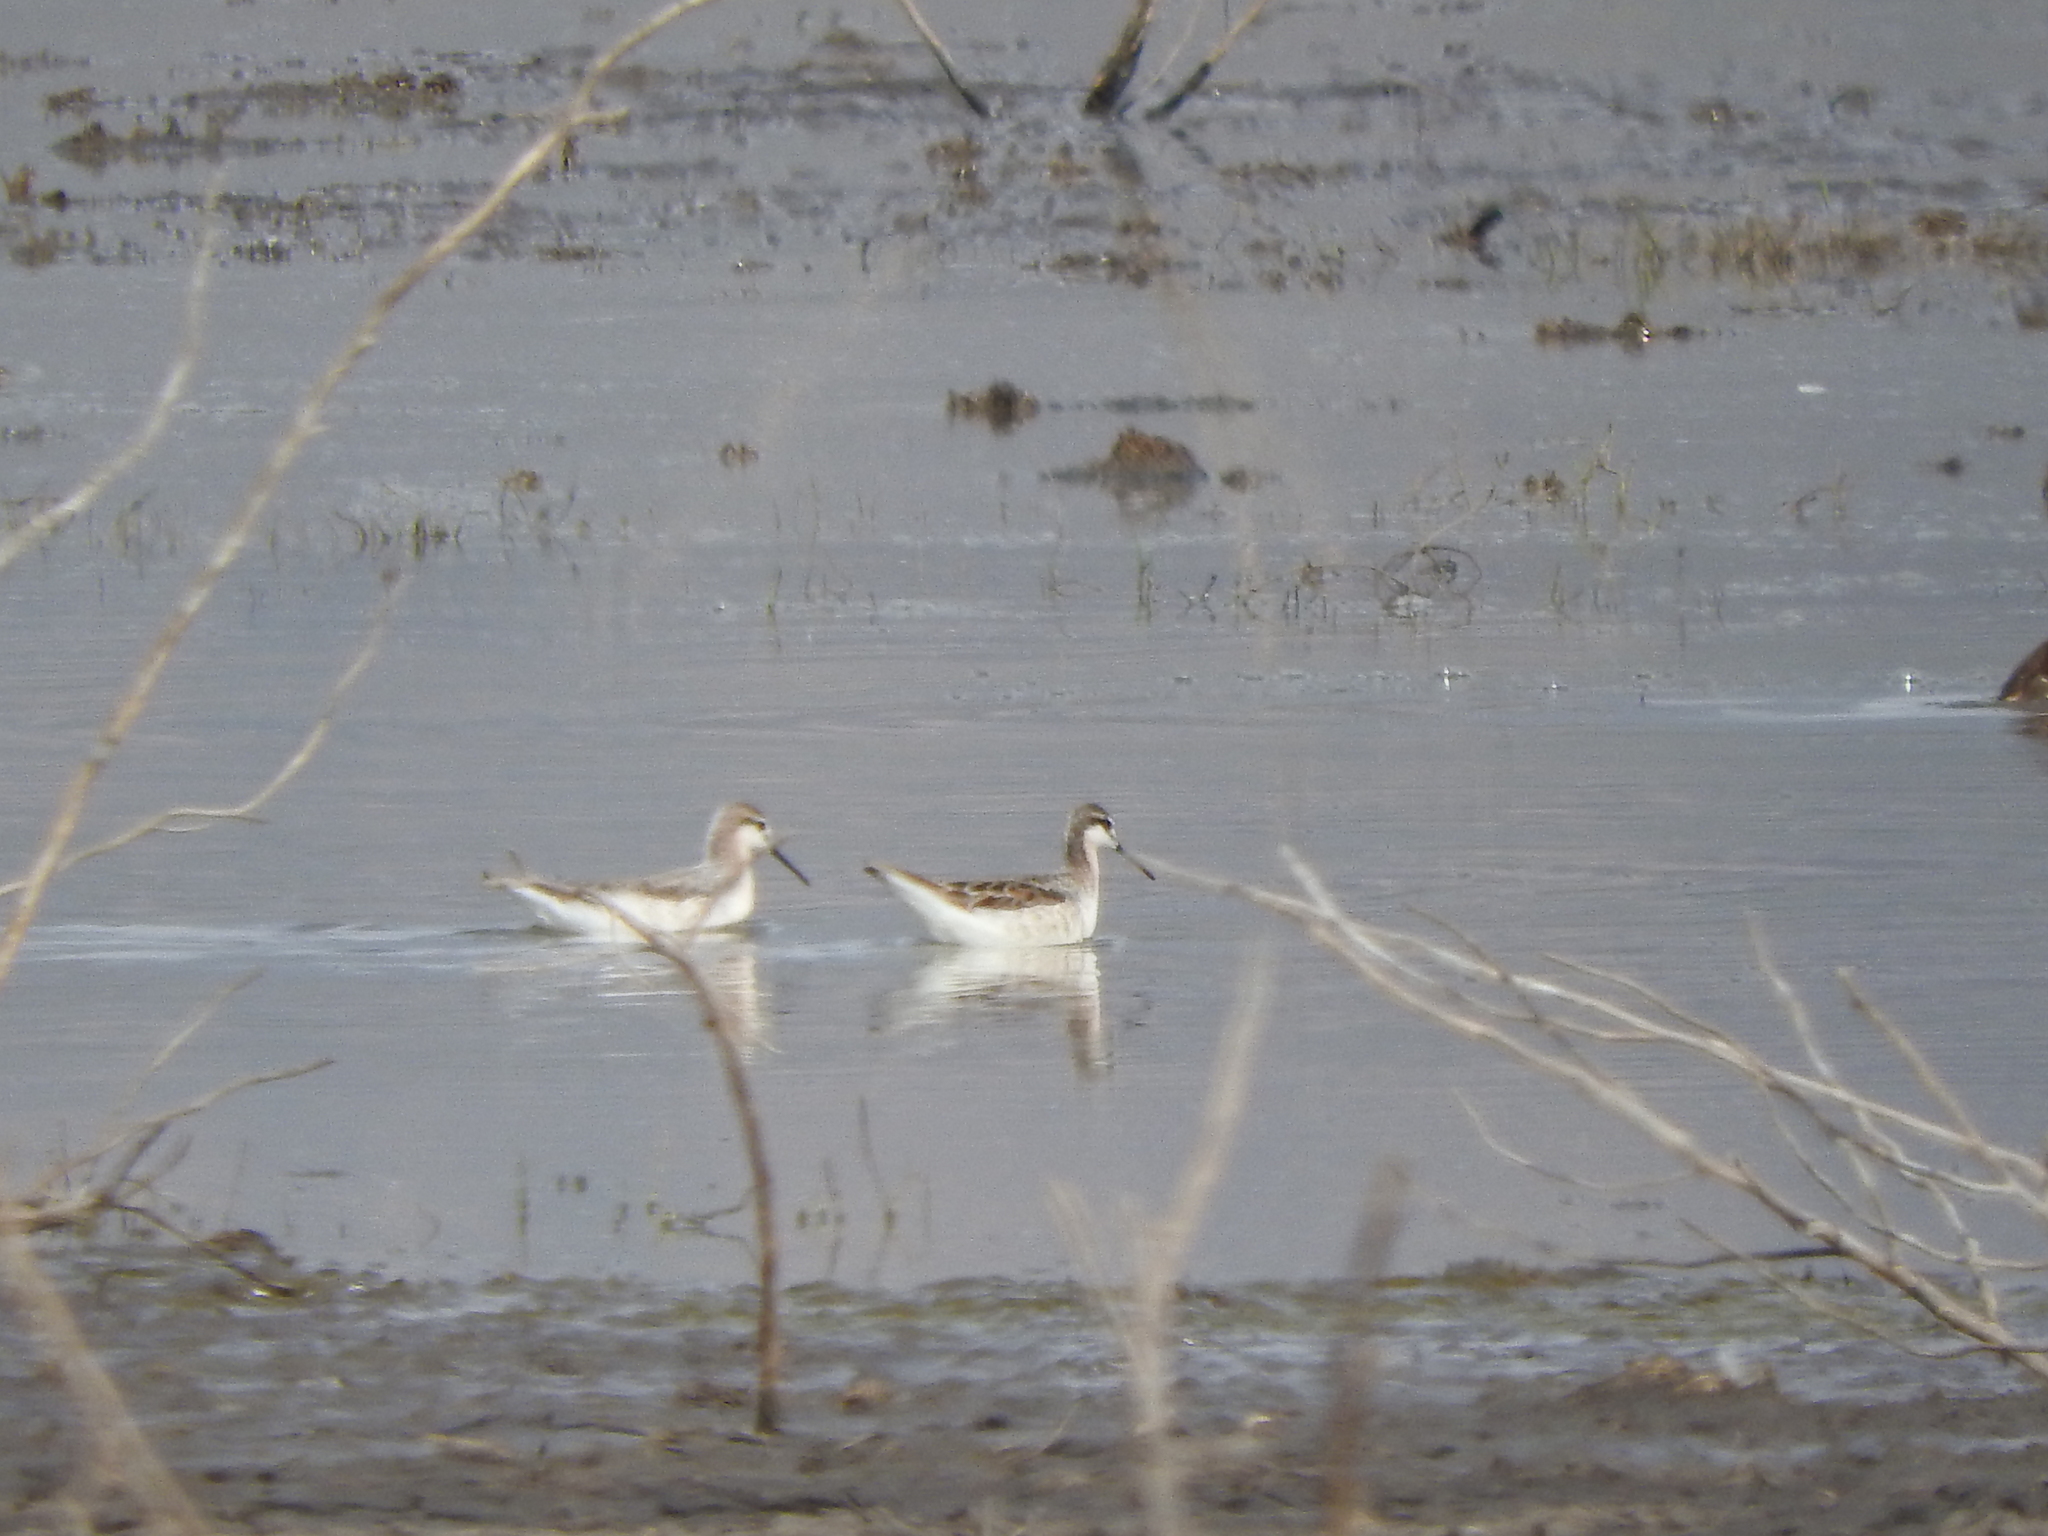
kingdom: Animalia
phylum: Chordata
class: Aves
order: Charadriiformes
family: Scolopacidae
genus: Phalaropus
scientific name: Phalaropus tricolor
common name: Wilson's phalarope
